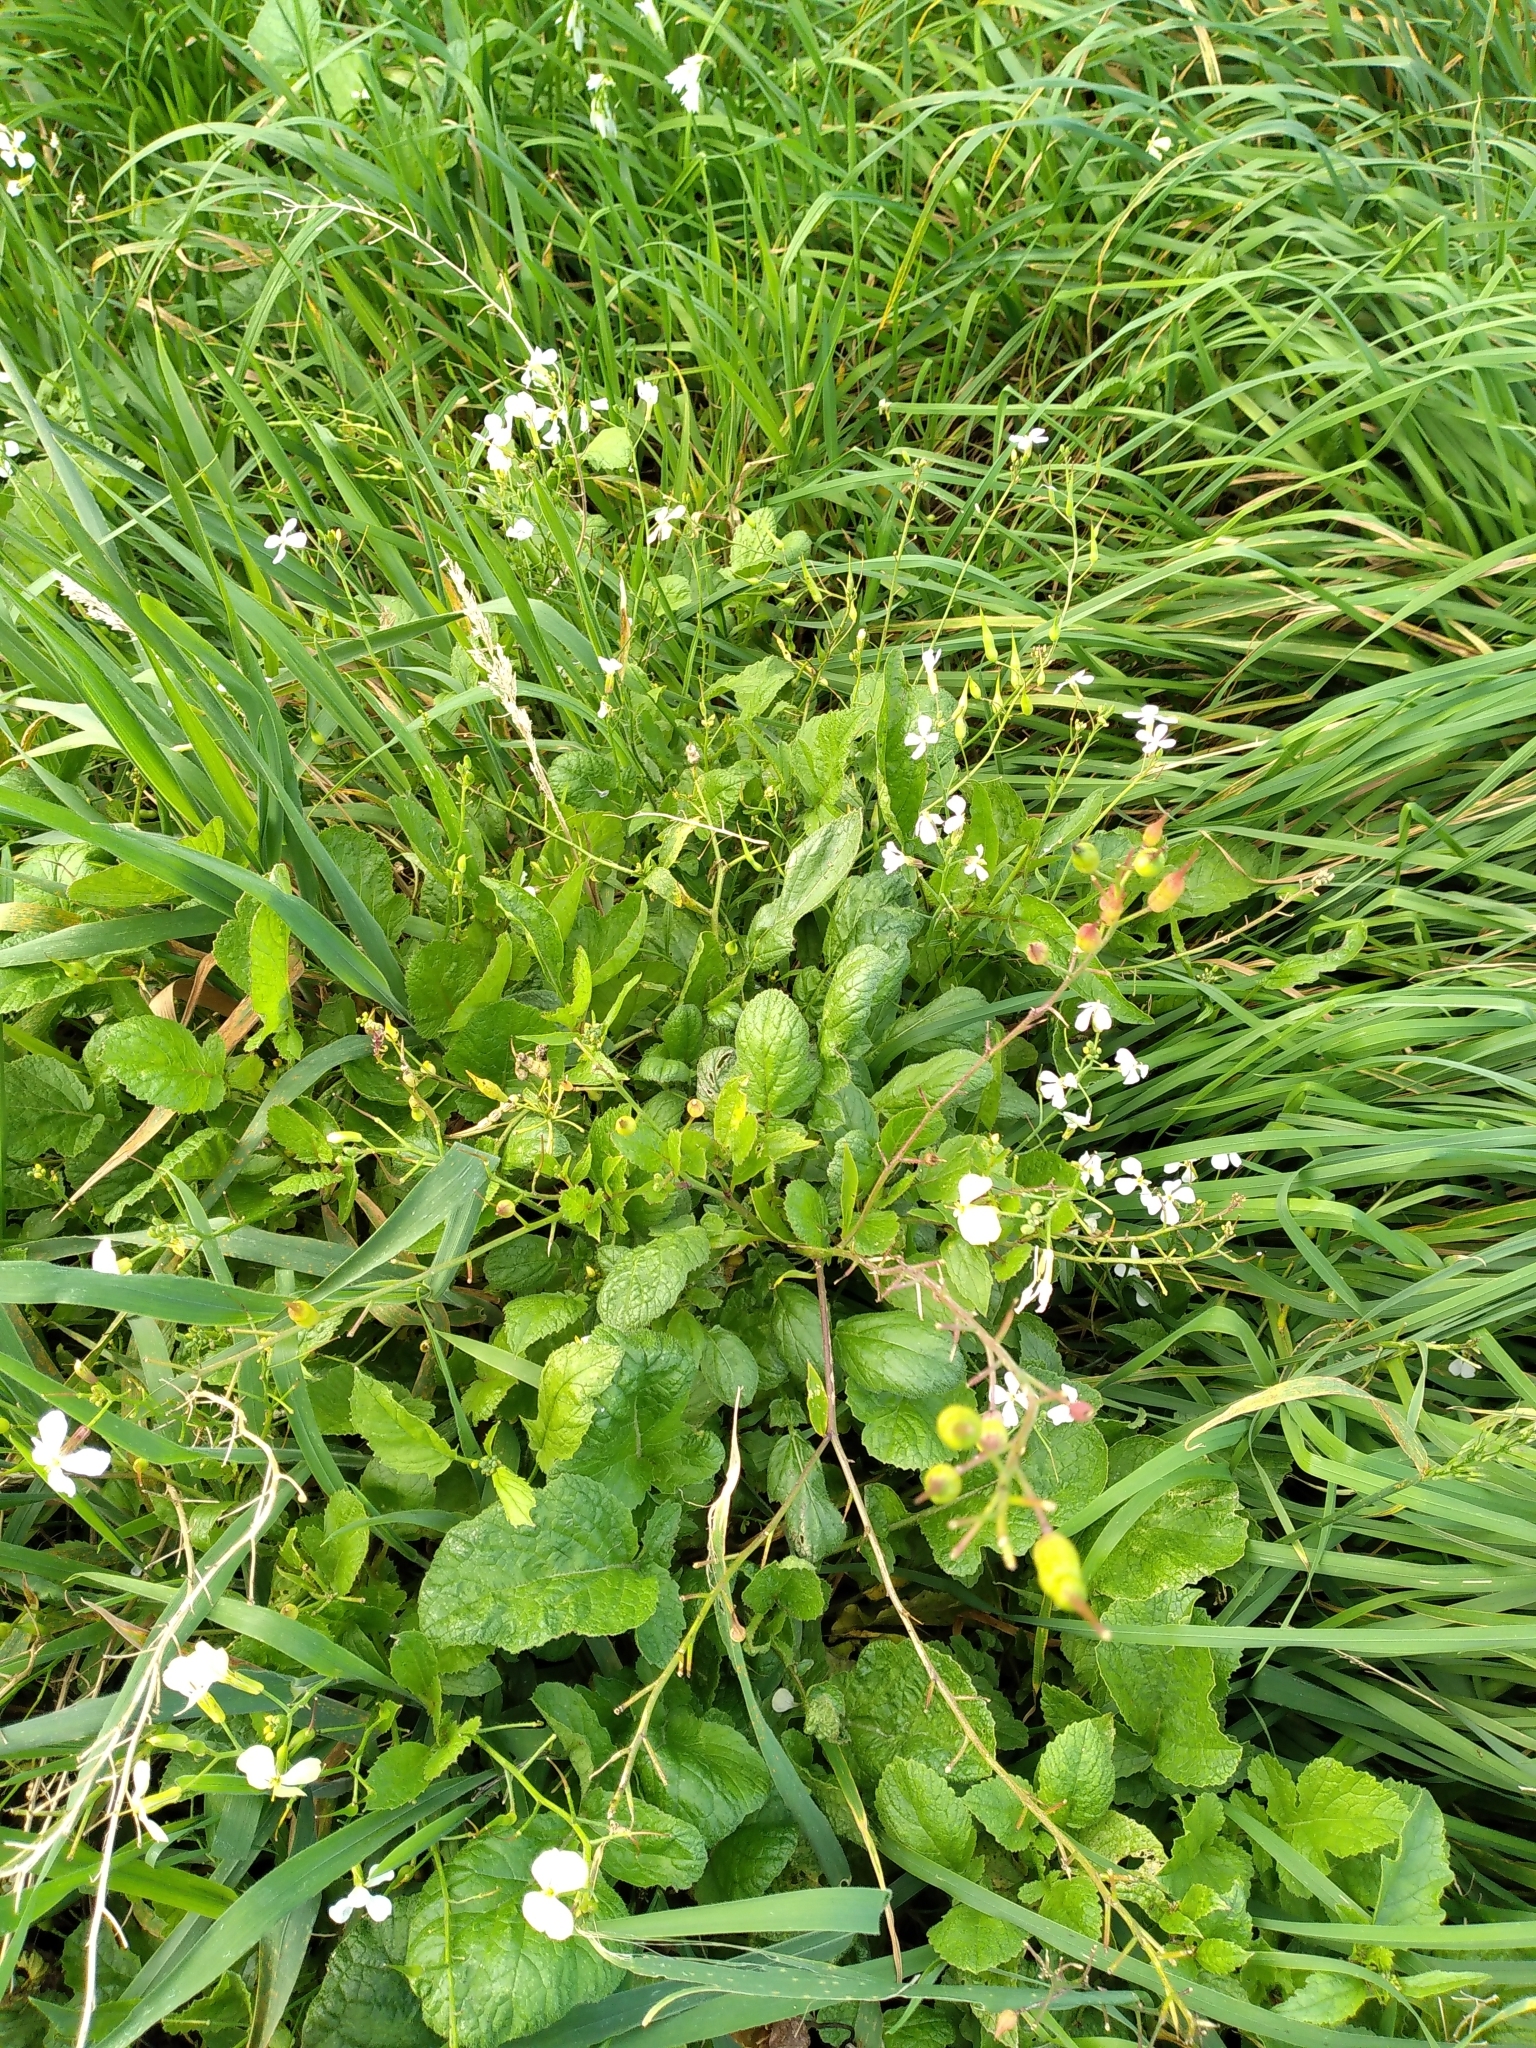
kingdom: Plantae
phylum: Tracheophyta
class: Magnoliopsida
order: Brassicales
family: Brassicaceae
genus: Raphanus
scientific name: Raphanus raphanistrum
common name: Wild radish
